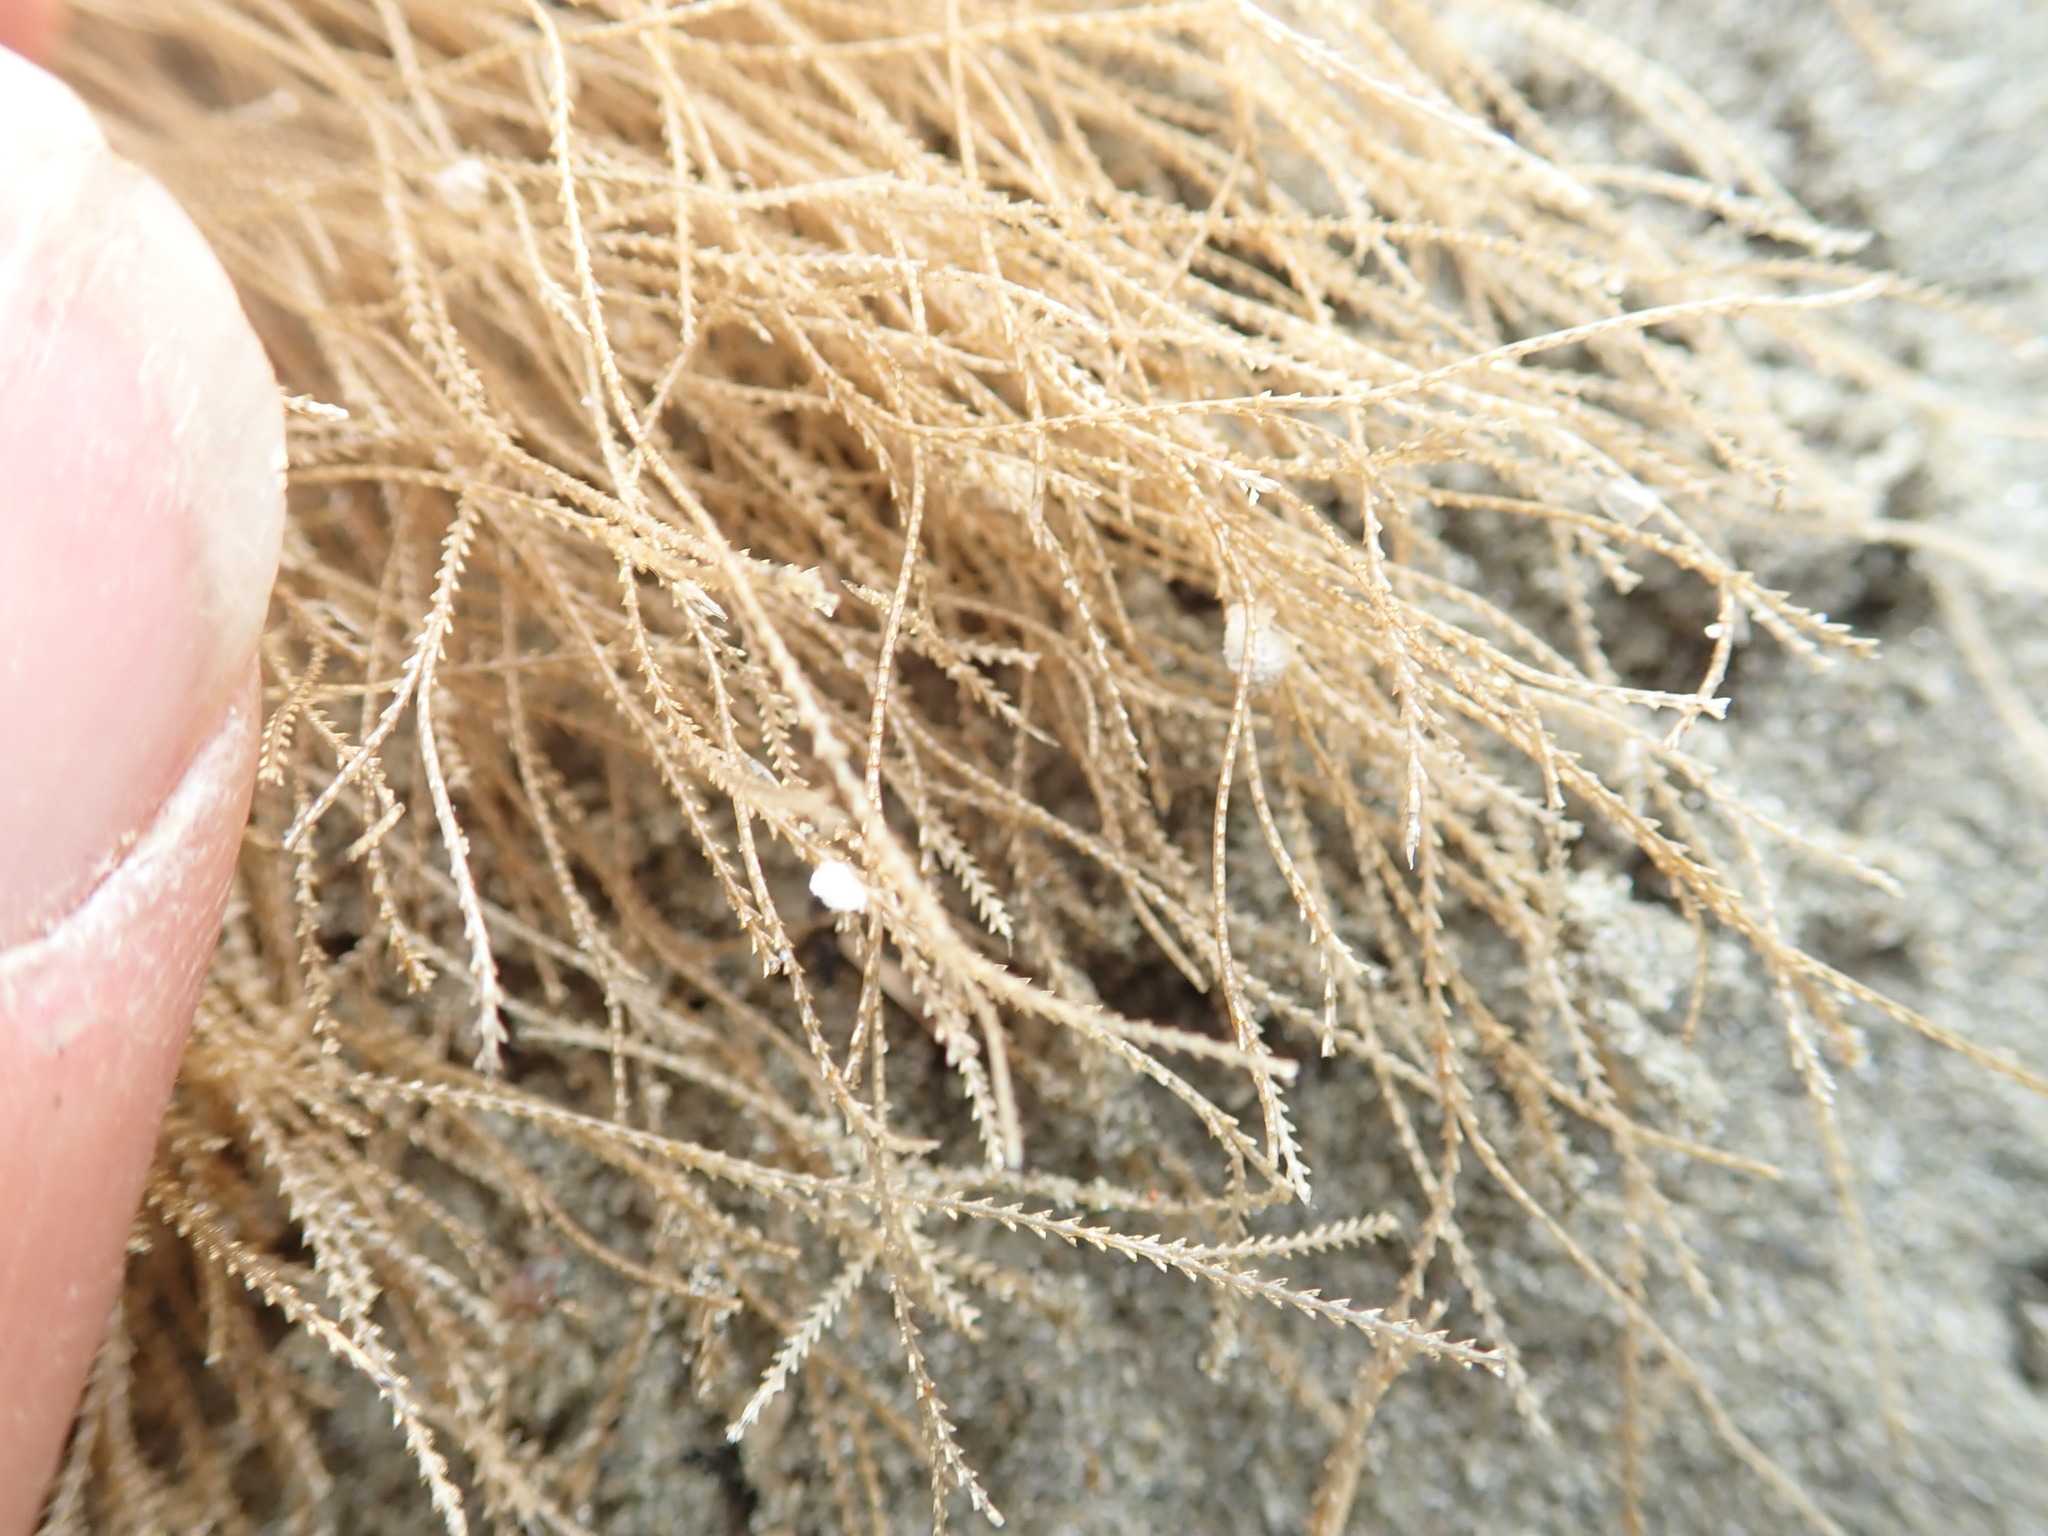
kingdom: Animalia
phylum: Cnidaria
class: Hydrozoa
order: Leptothecata
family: Sertulariidae
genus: Amphisbetia
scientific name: Amphisbetia bispinosa
